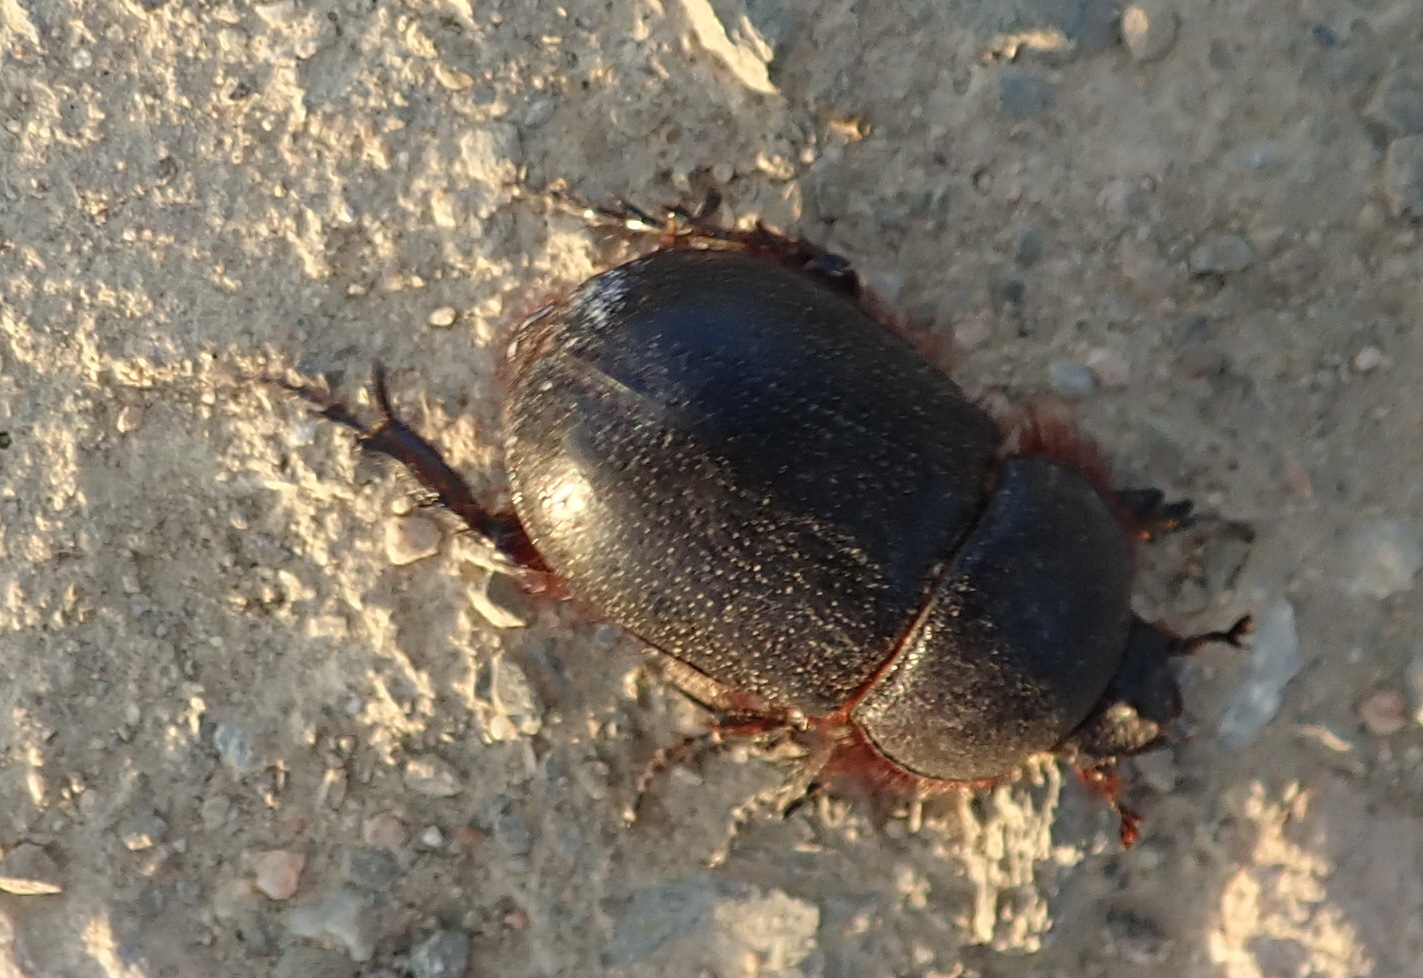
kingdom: Animalia
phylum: Arthropoda
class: Insecta
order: Coleoptera
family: Scarabaeidae
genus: Kirprellius
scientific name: Kirprellius syrichtus
